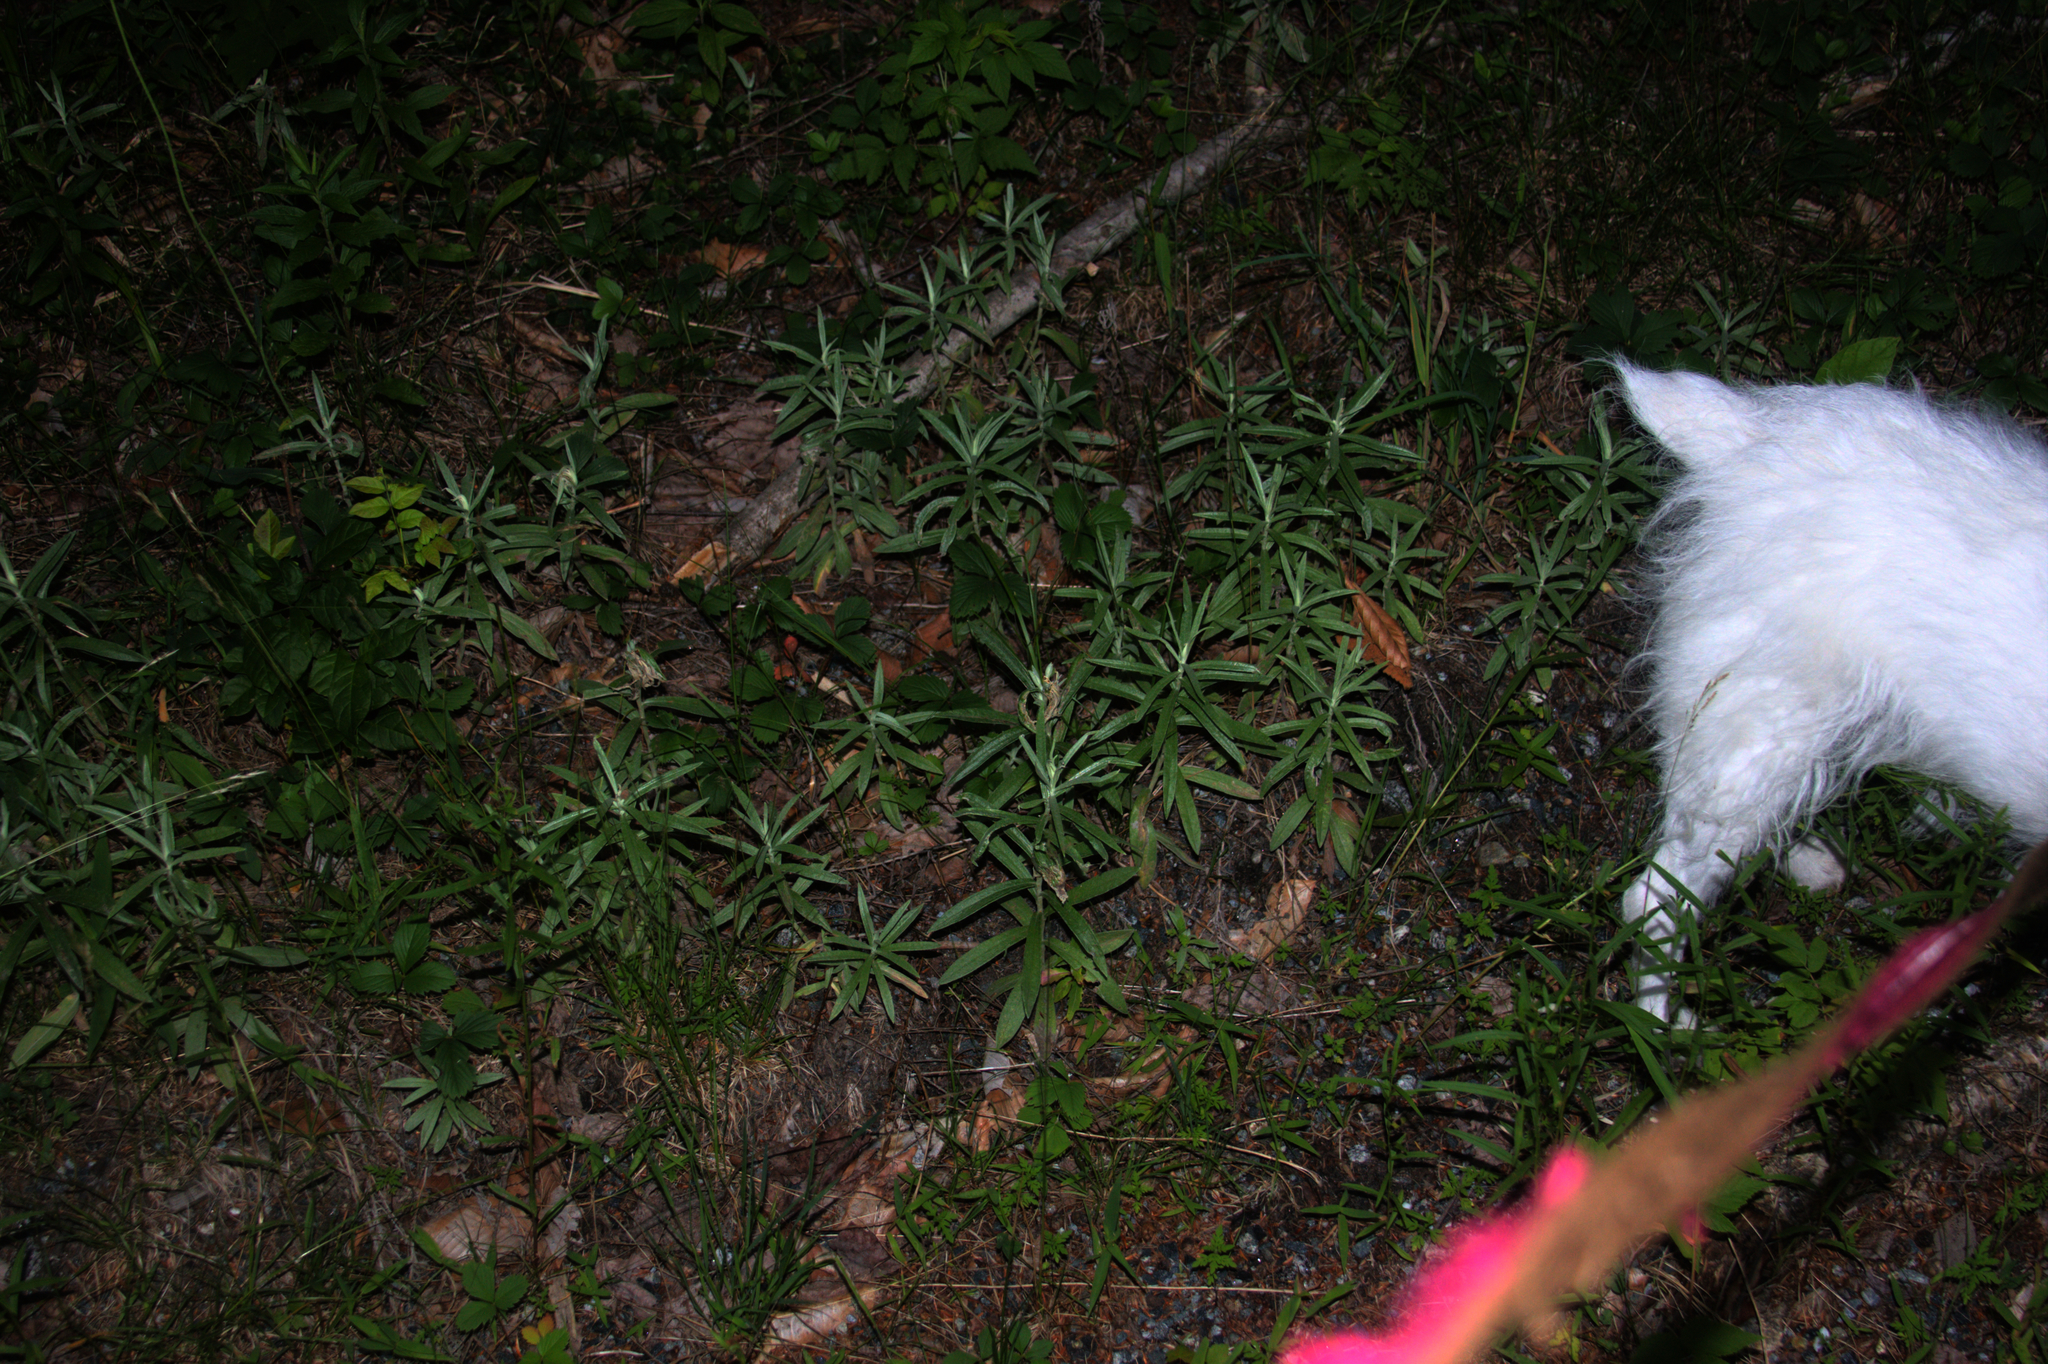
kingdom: Plantae
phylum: Tracheophyta
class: Magnoliopsida
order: Asterales
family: Asteraceae
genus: Anaphalis
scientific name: Anaphalis margaritacea
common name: Pearly everlasting
